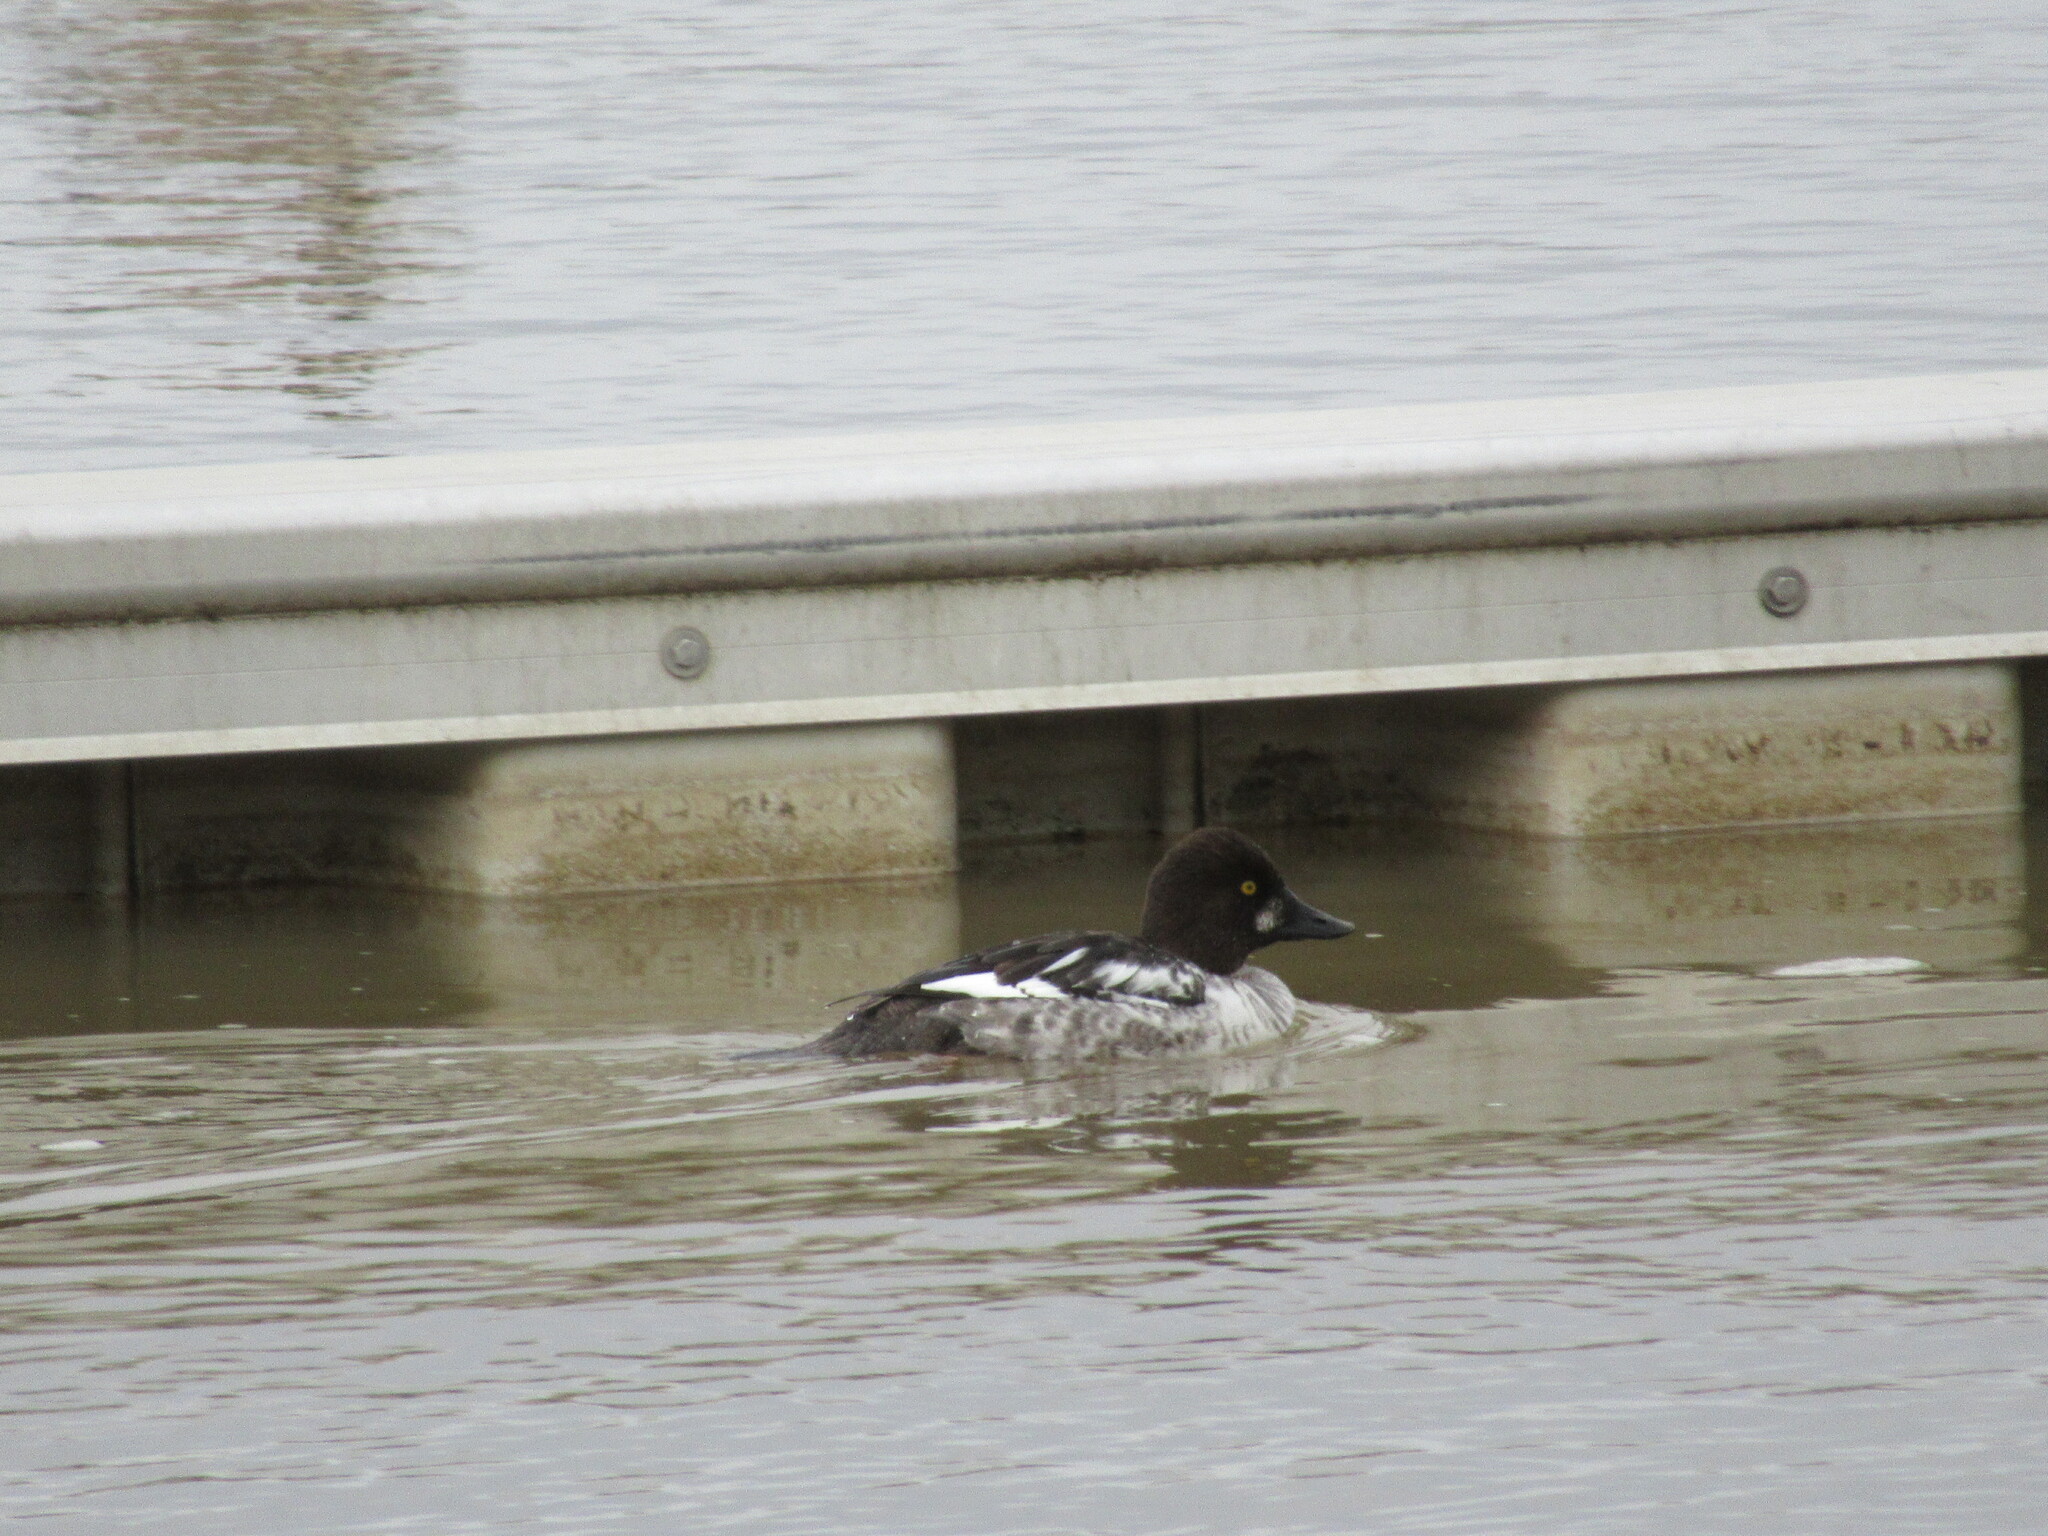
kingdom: Animalia
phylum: Chordata
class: Aves
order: Anseriformes
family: Anatidae
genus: Bucephala
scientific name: Bucephala clangula
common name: Common goldeneye
